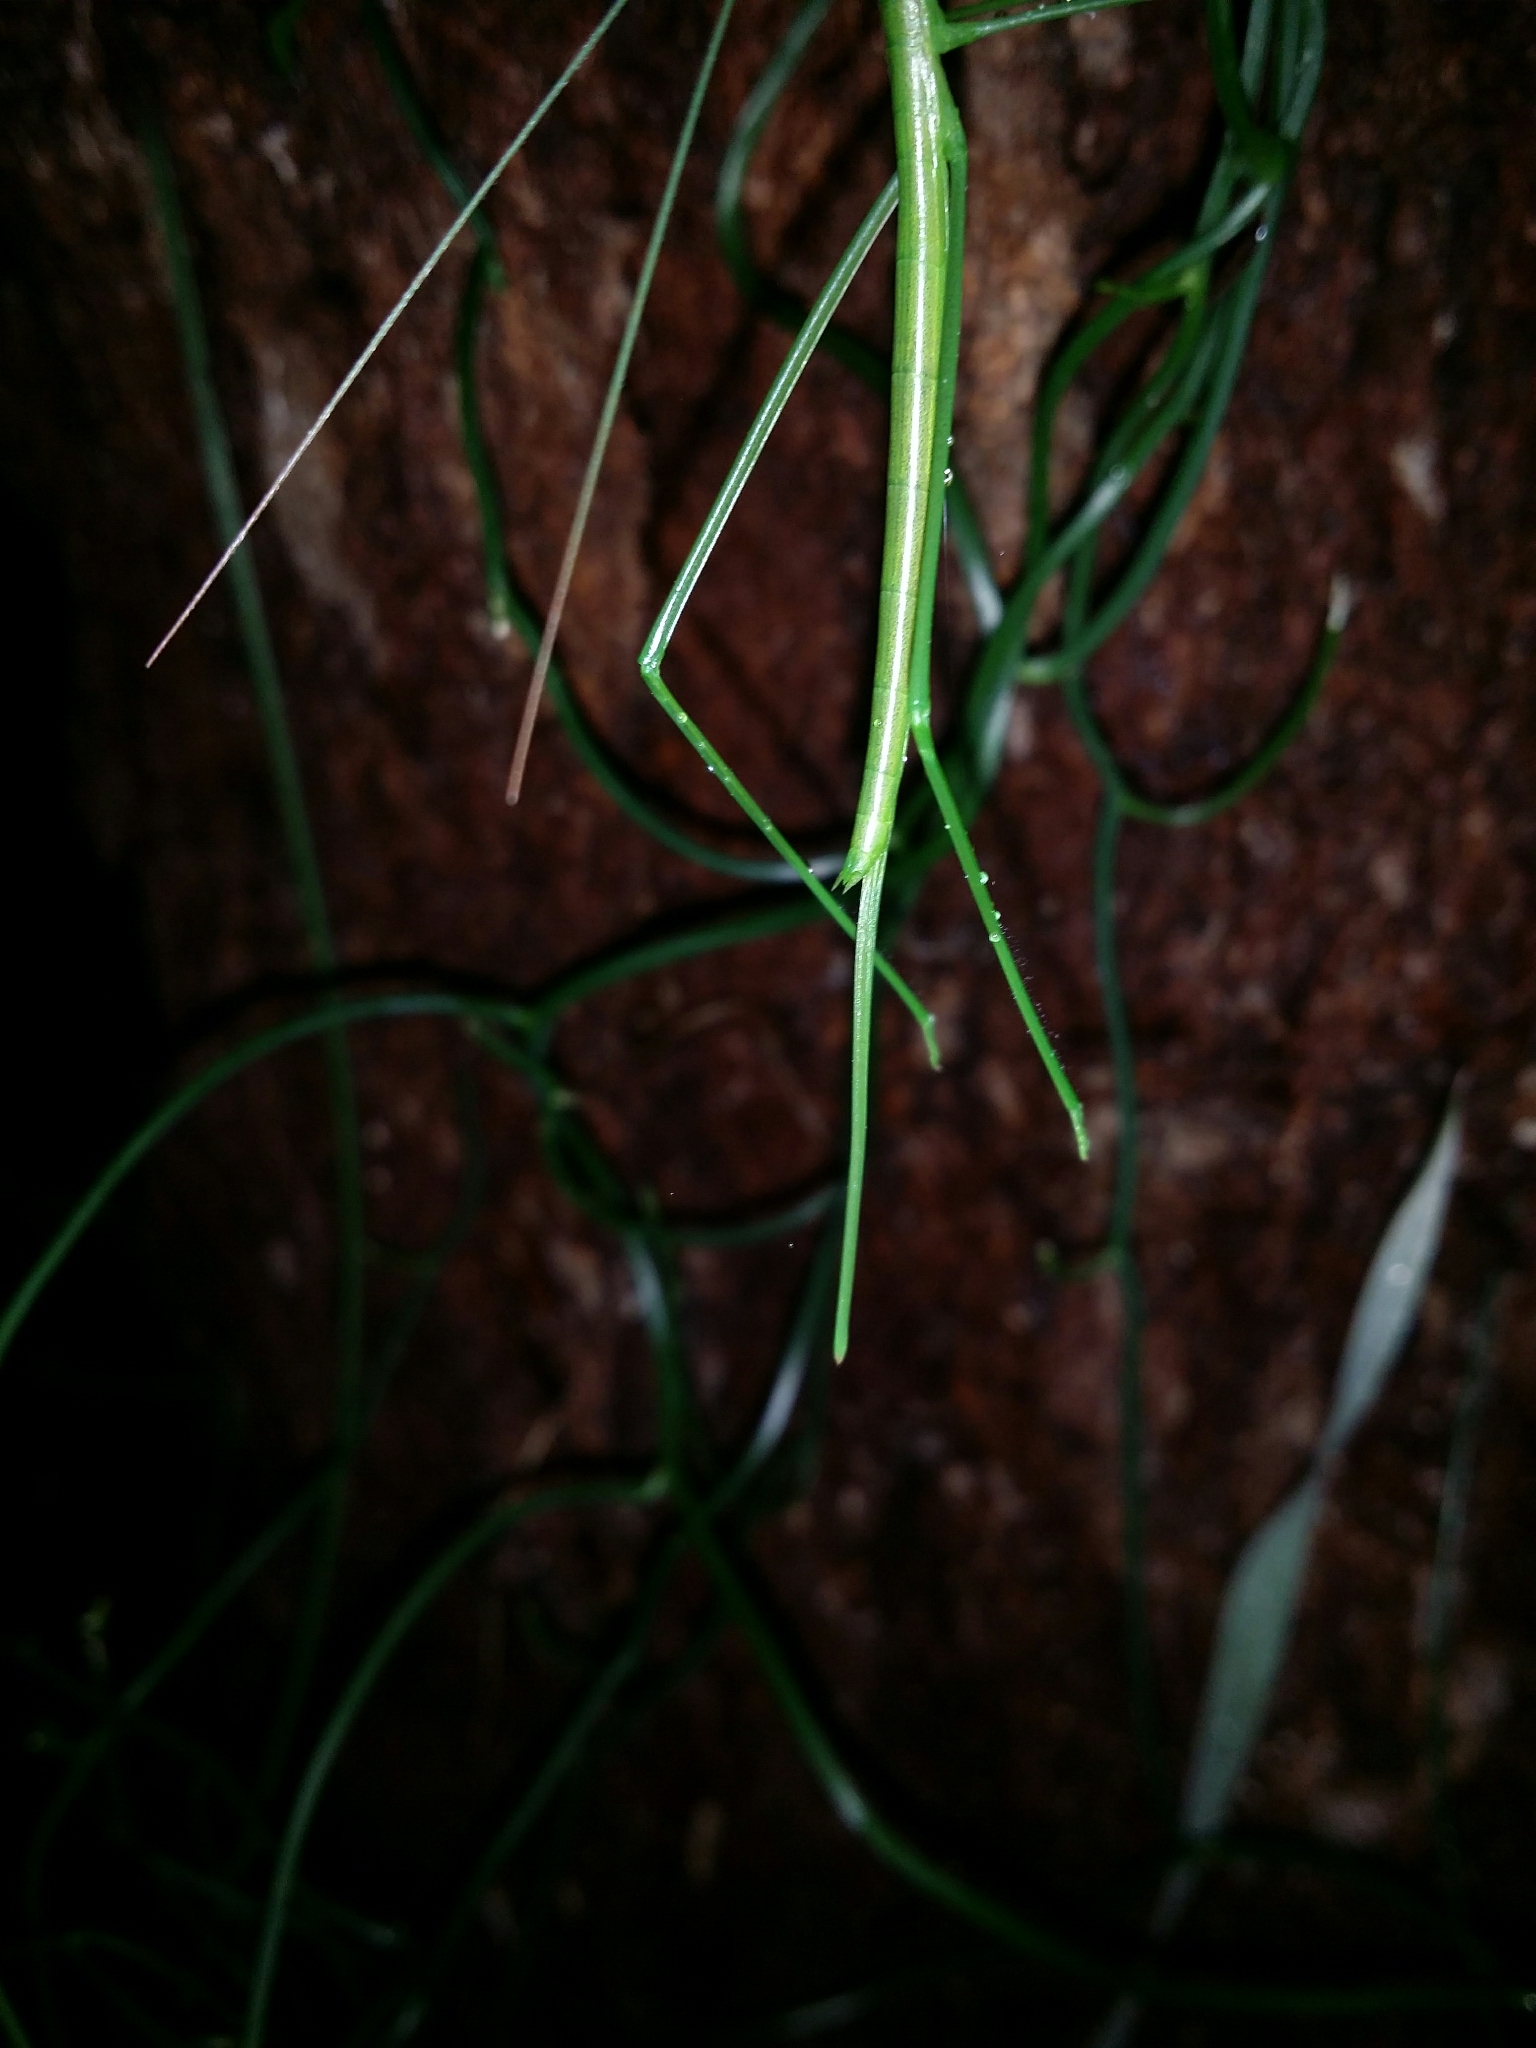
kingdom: Animalia
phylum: Arthropoda
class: Insecta
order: Orthoptera
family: Tettigoniidae
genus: Phasmodes
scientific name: Phasmodes ranatriformis
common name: King's park stick katydid
